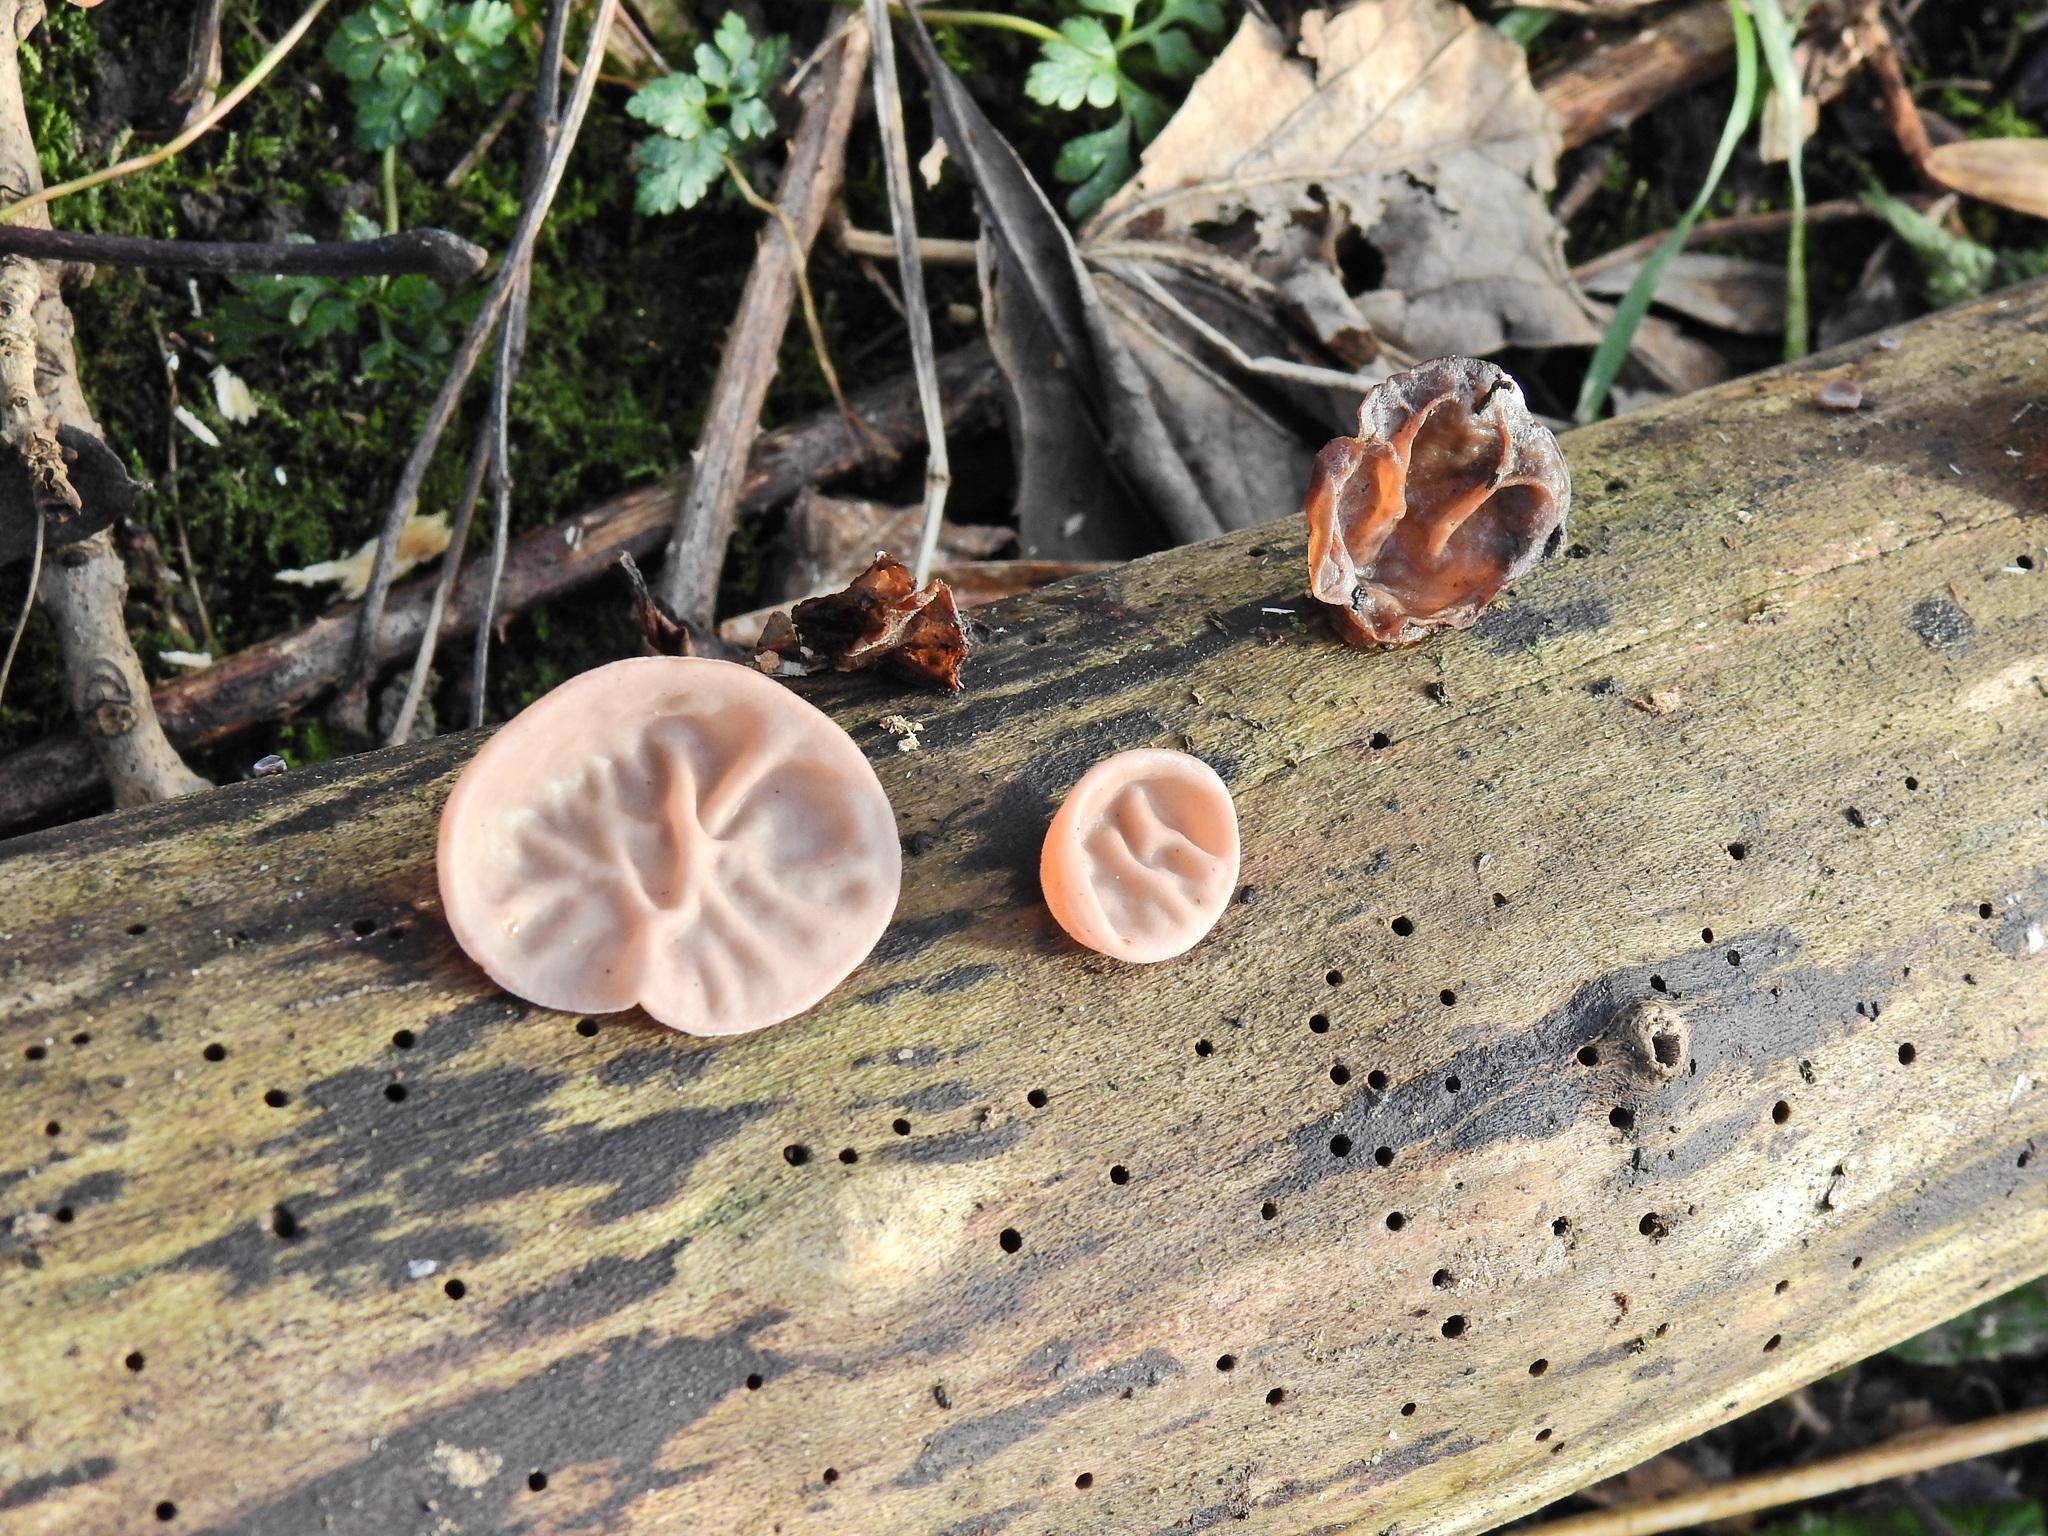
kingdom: Fungi
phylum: Basidiomycota
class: Agaricomycetes
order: Auriculariales
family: Auriculariaceae
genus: Auricularia
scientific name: Auricularia auricula-judae
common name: Jelly ear
